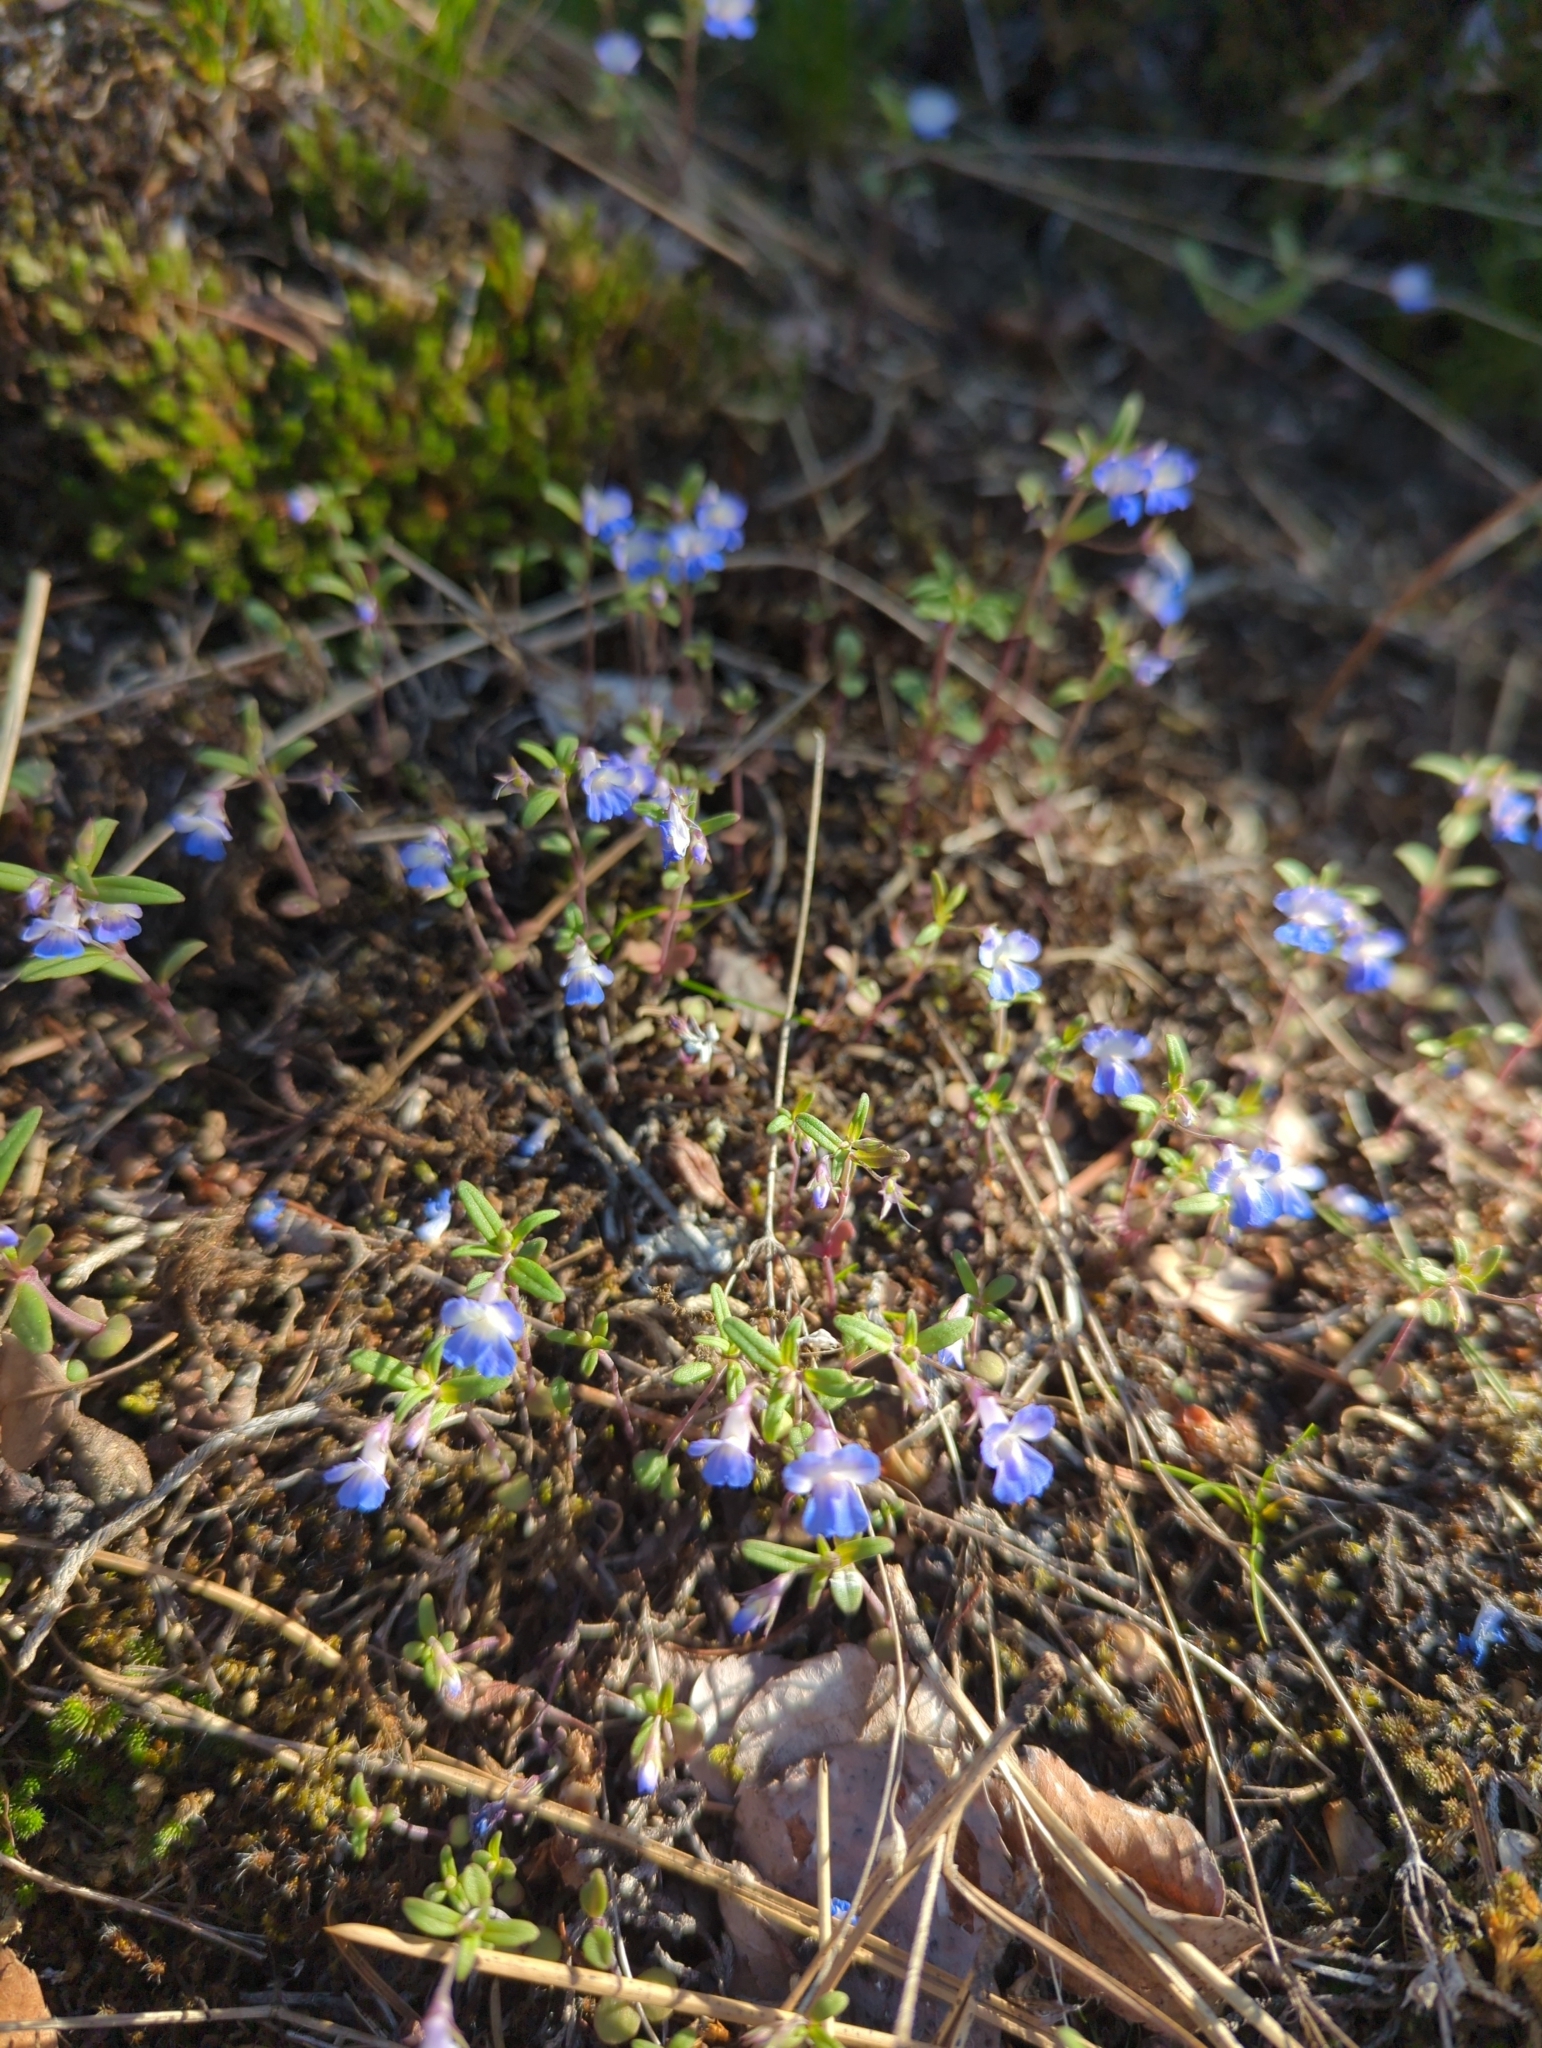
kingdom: Plantae
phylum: Tracheophyta
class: Magnoliopsida
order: Lamiales
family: Plantaginaceae
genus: Collinsia
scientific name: Collinsia parviflora
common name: Blue-lips
